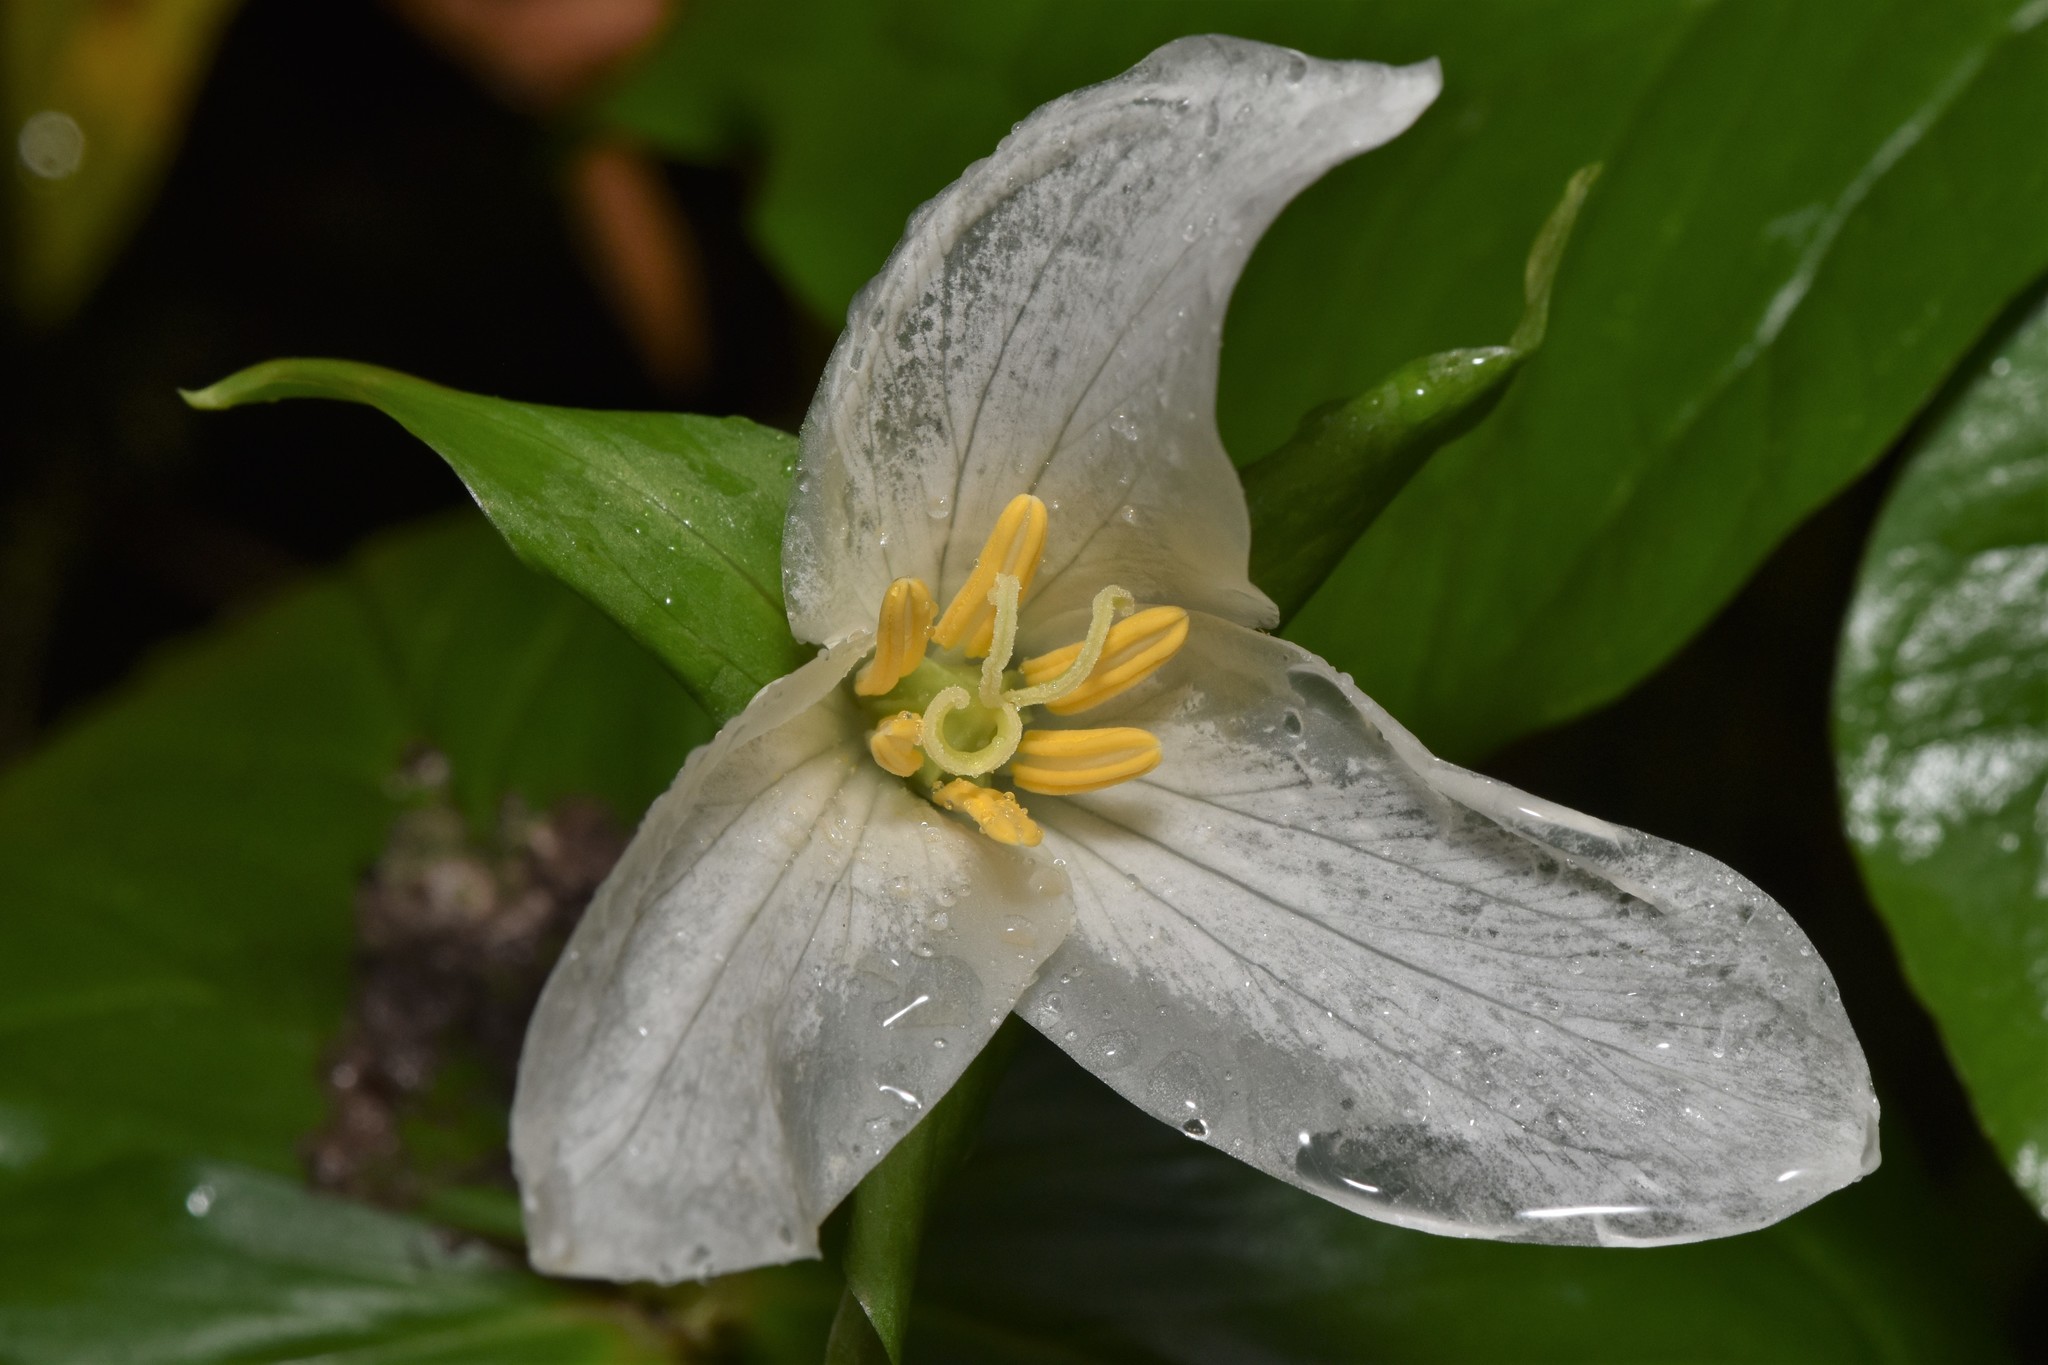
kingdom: Plantae
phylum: Tracheophyta
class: Liliopsida
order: Liliales
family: Melanthiaceae
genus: Trillium
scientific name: Trillium ovatum
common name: Pacific trillium
